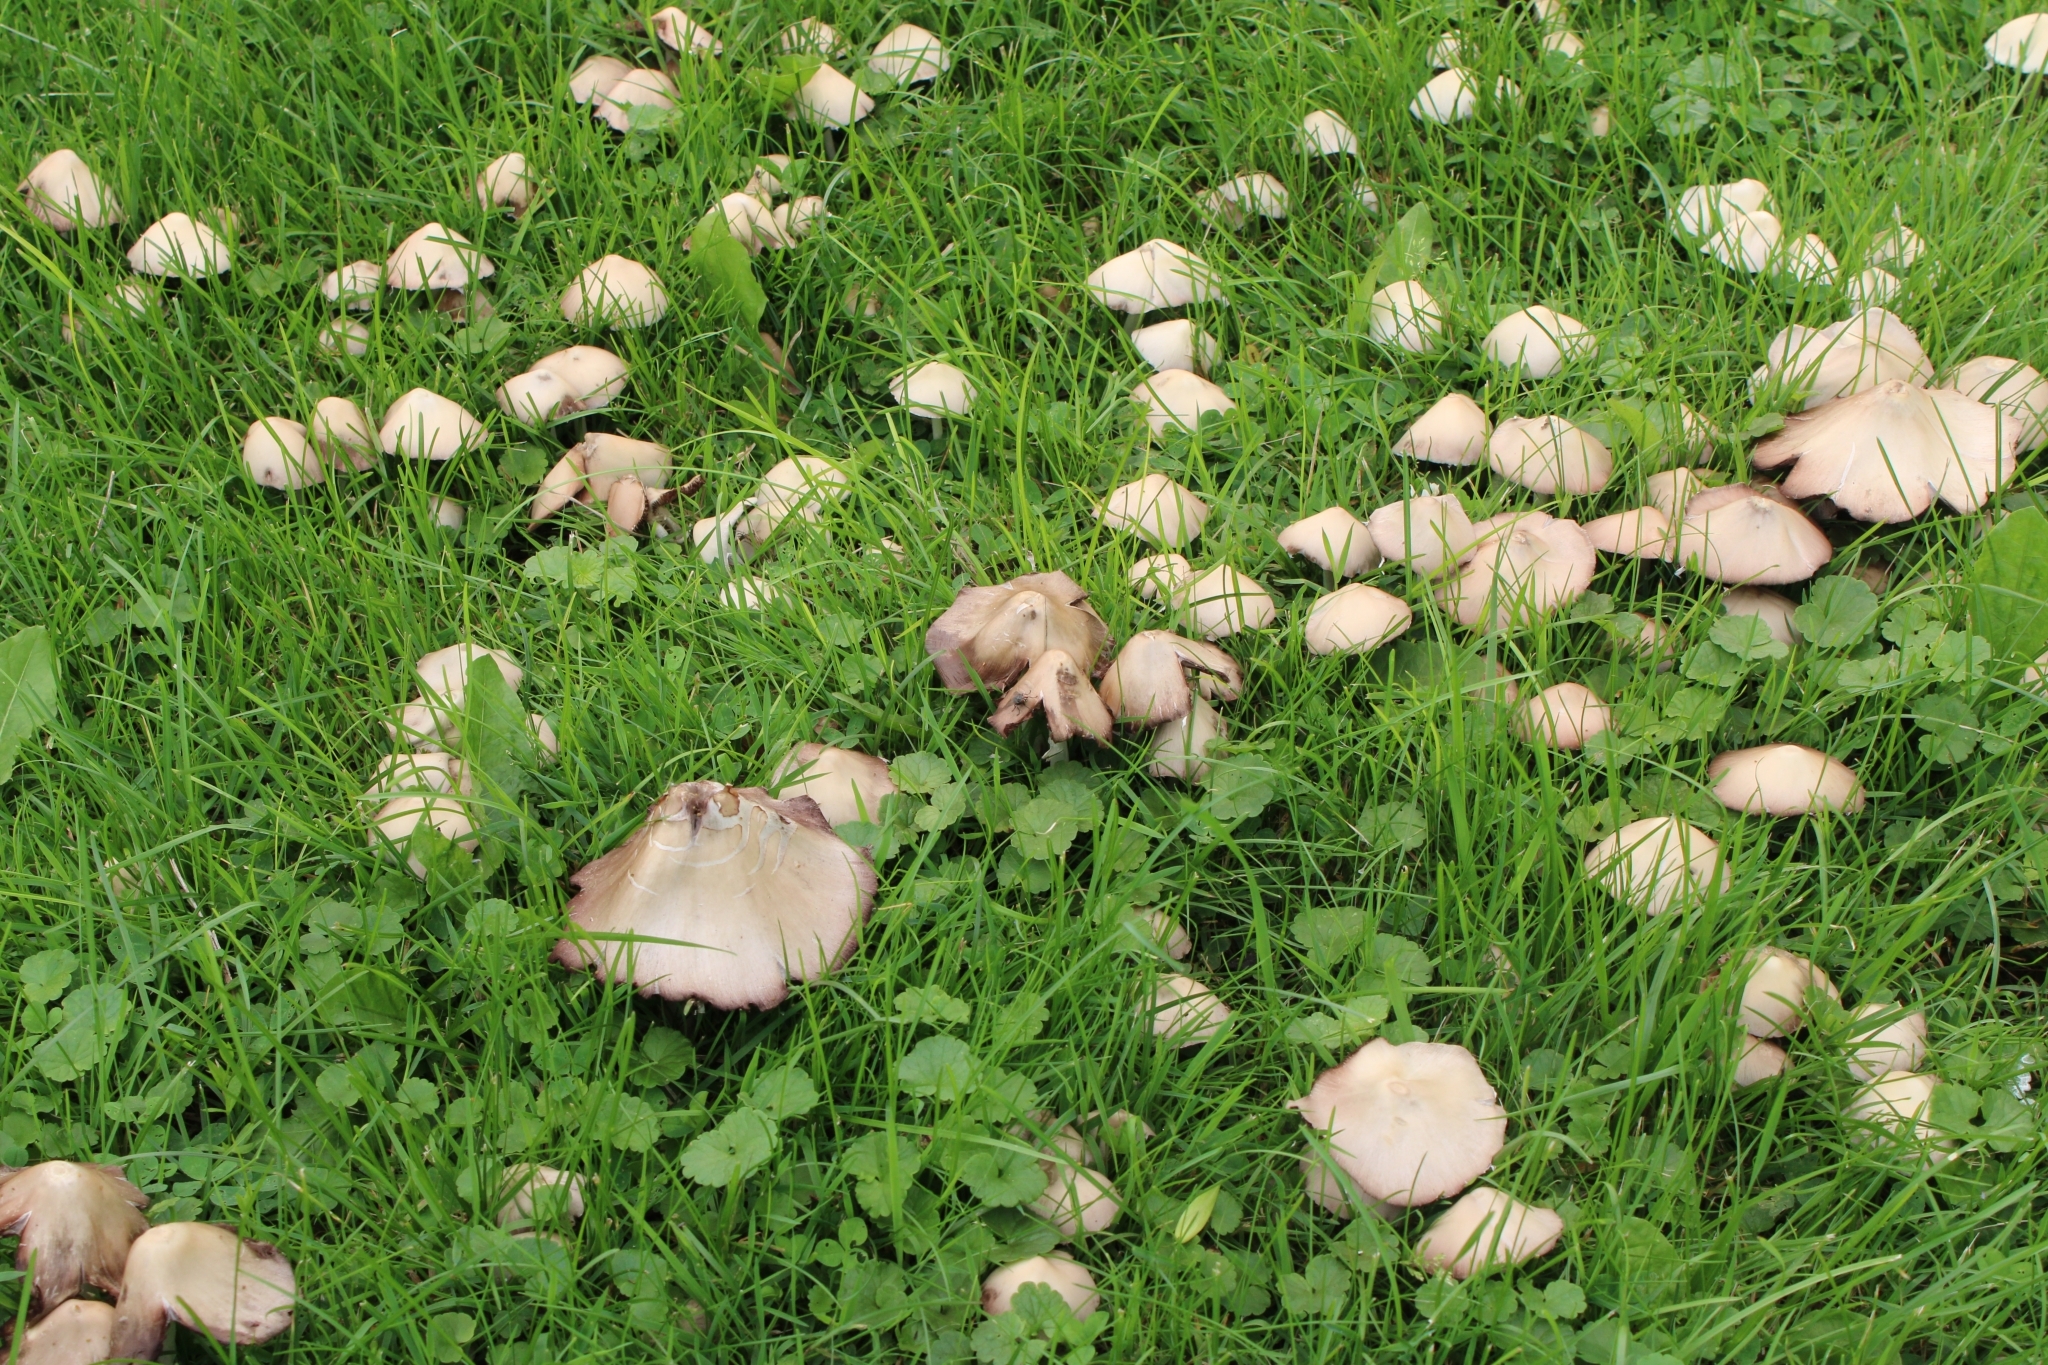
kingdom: Fungi
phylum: Basidiomycota
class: Agaricomycetes
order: Agaricales
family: Psathyrellaceae
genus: Candolleomyces
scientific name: Candolleomyces candolleanus
